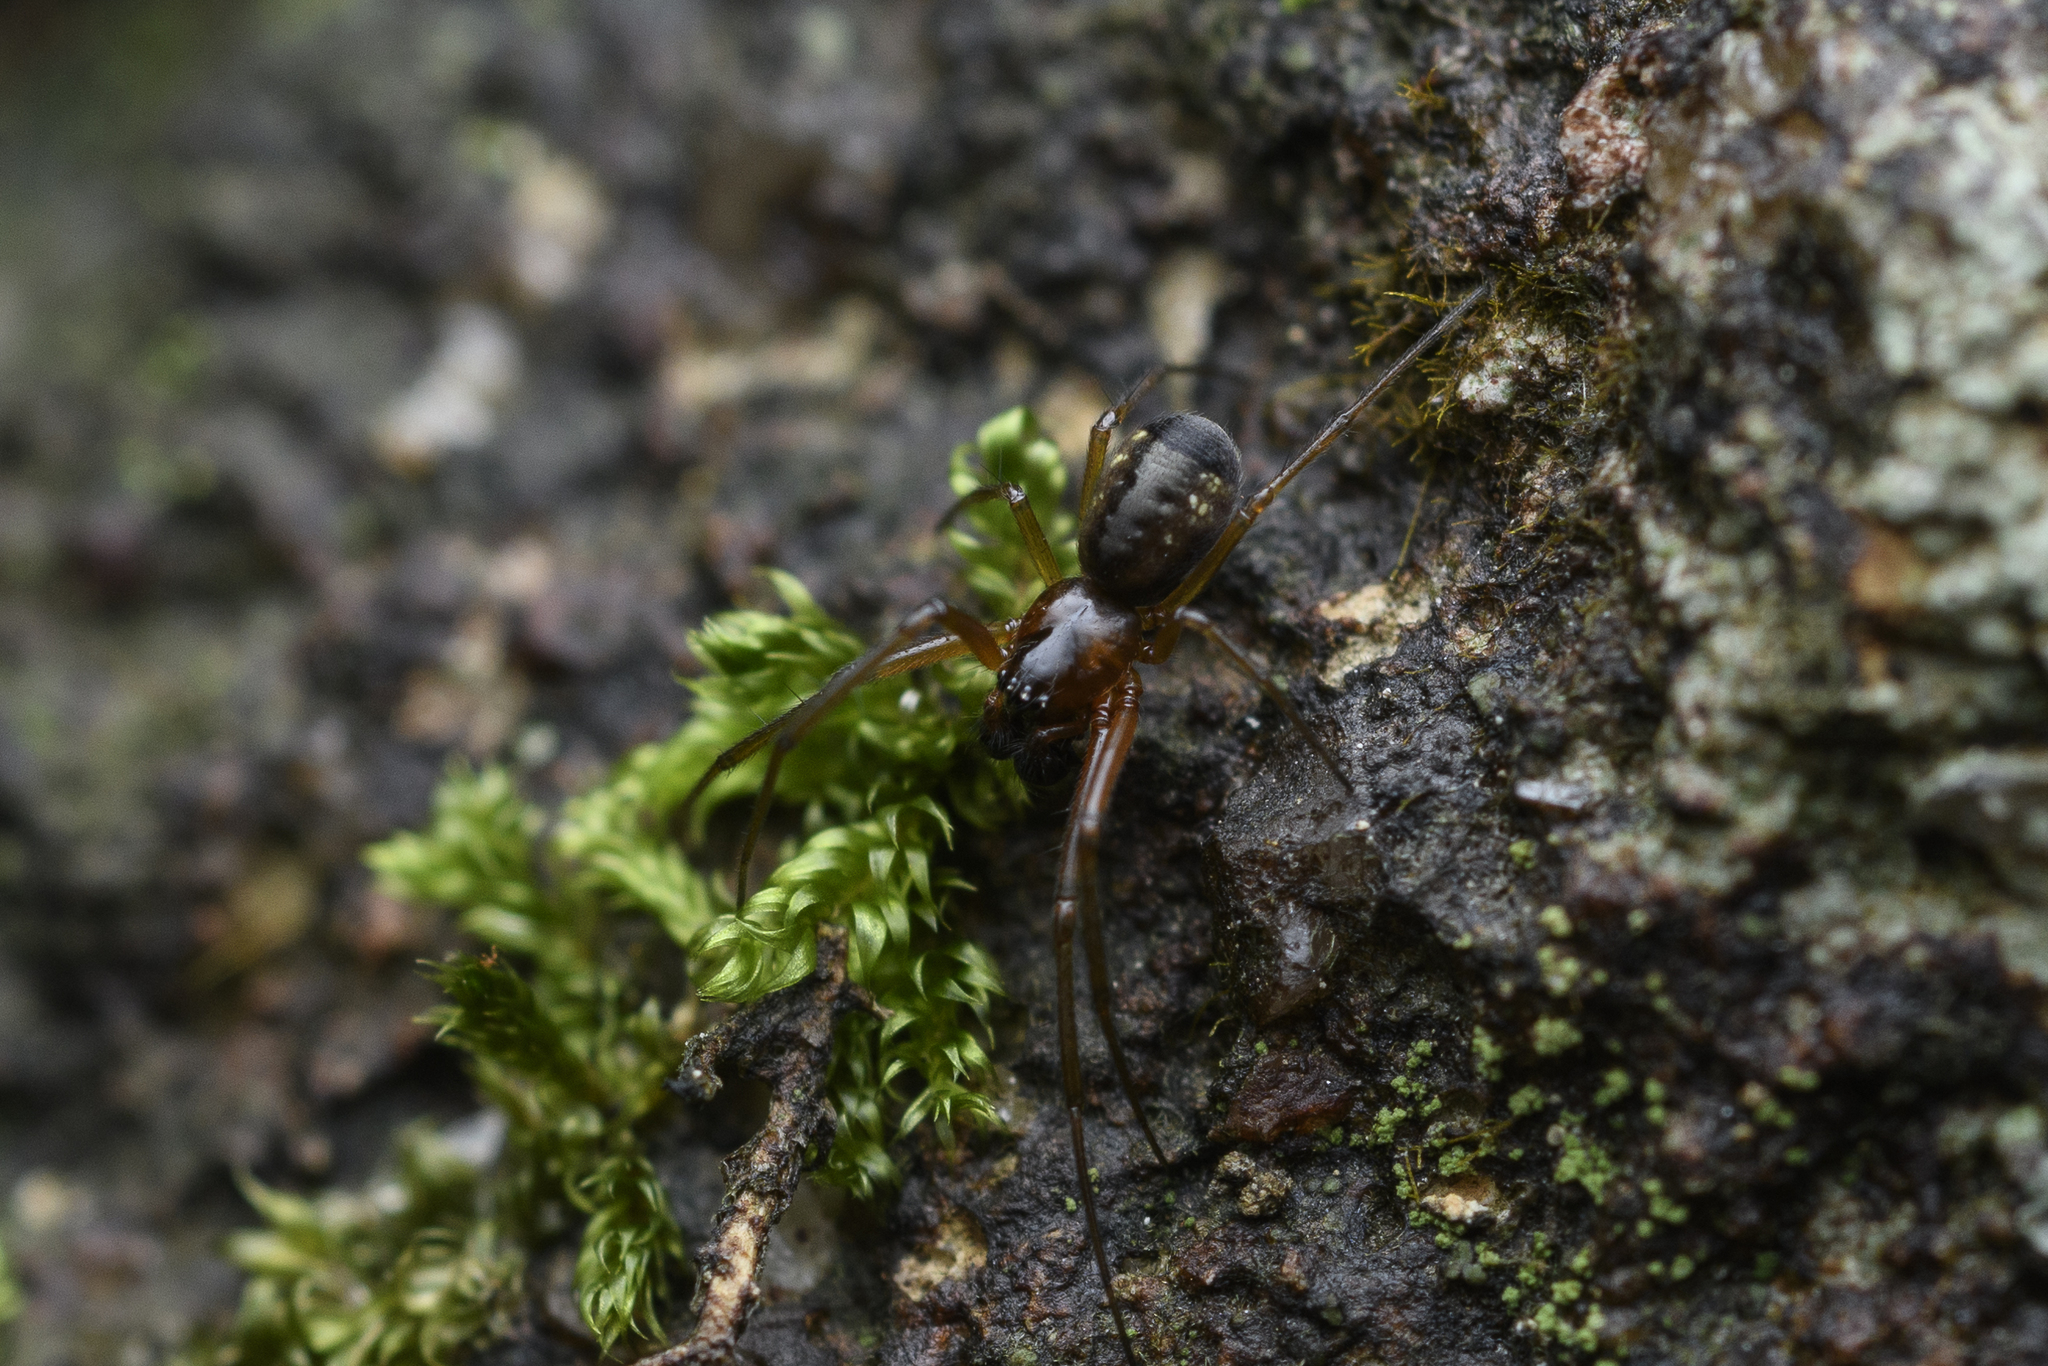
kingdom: Animalia
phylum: Arthropoda
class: Arachnida
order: Araneae
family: Linyphiidae
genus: Prosoponoides
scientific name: Prosoponoides sinense
